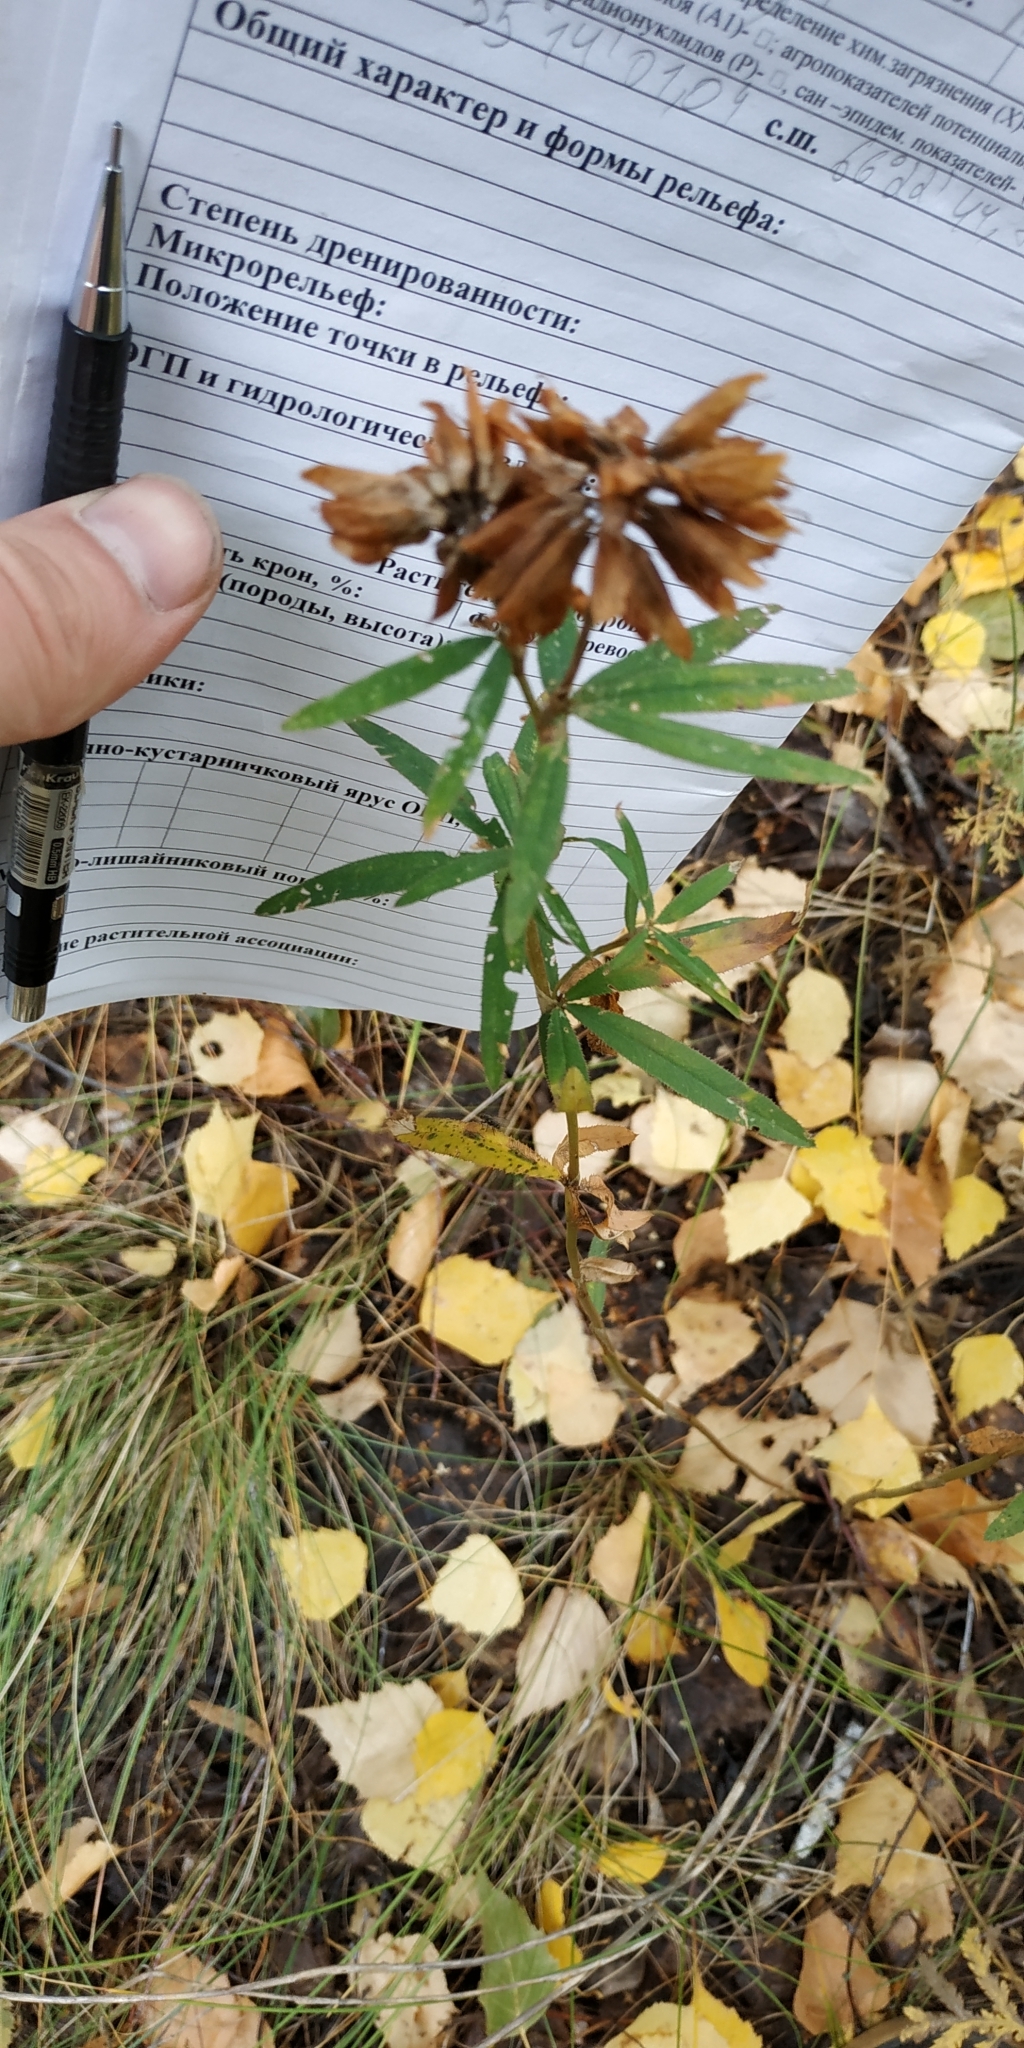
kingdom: Plantae
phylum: Tracheophyta
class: Magnoliopsida
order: Fabales
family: Fabaceae
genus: Trifolium
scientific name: Trifolium lupinaster
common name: Lupine clover
